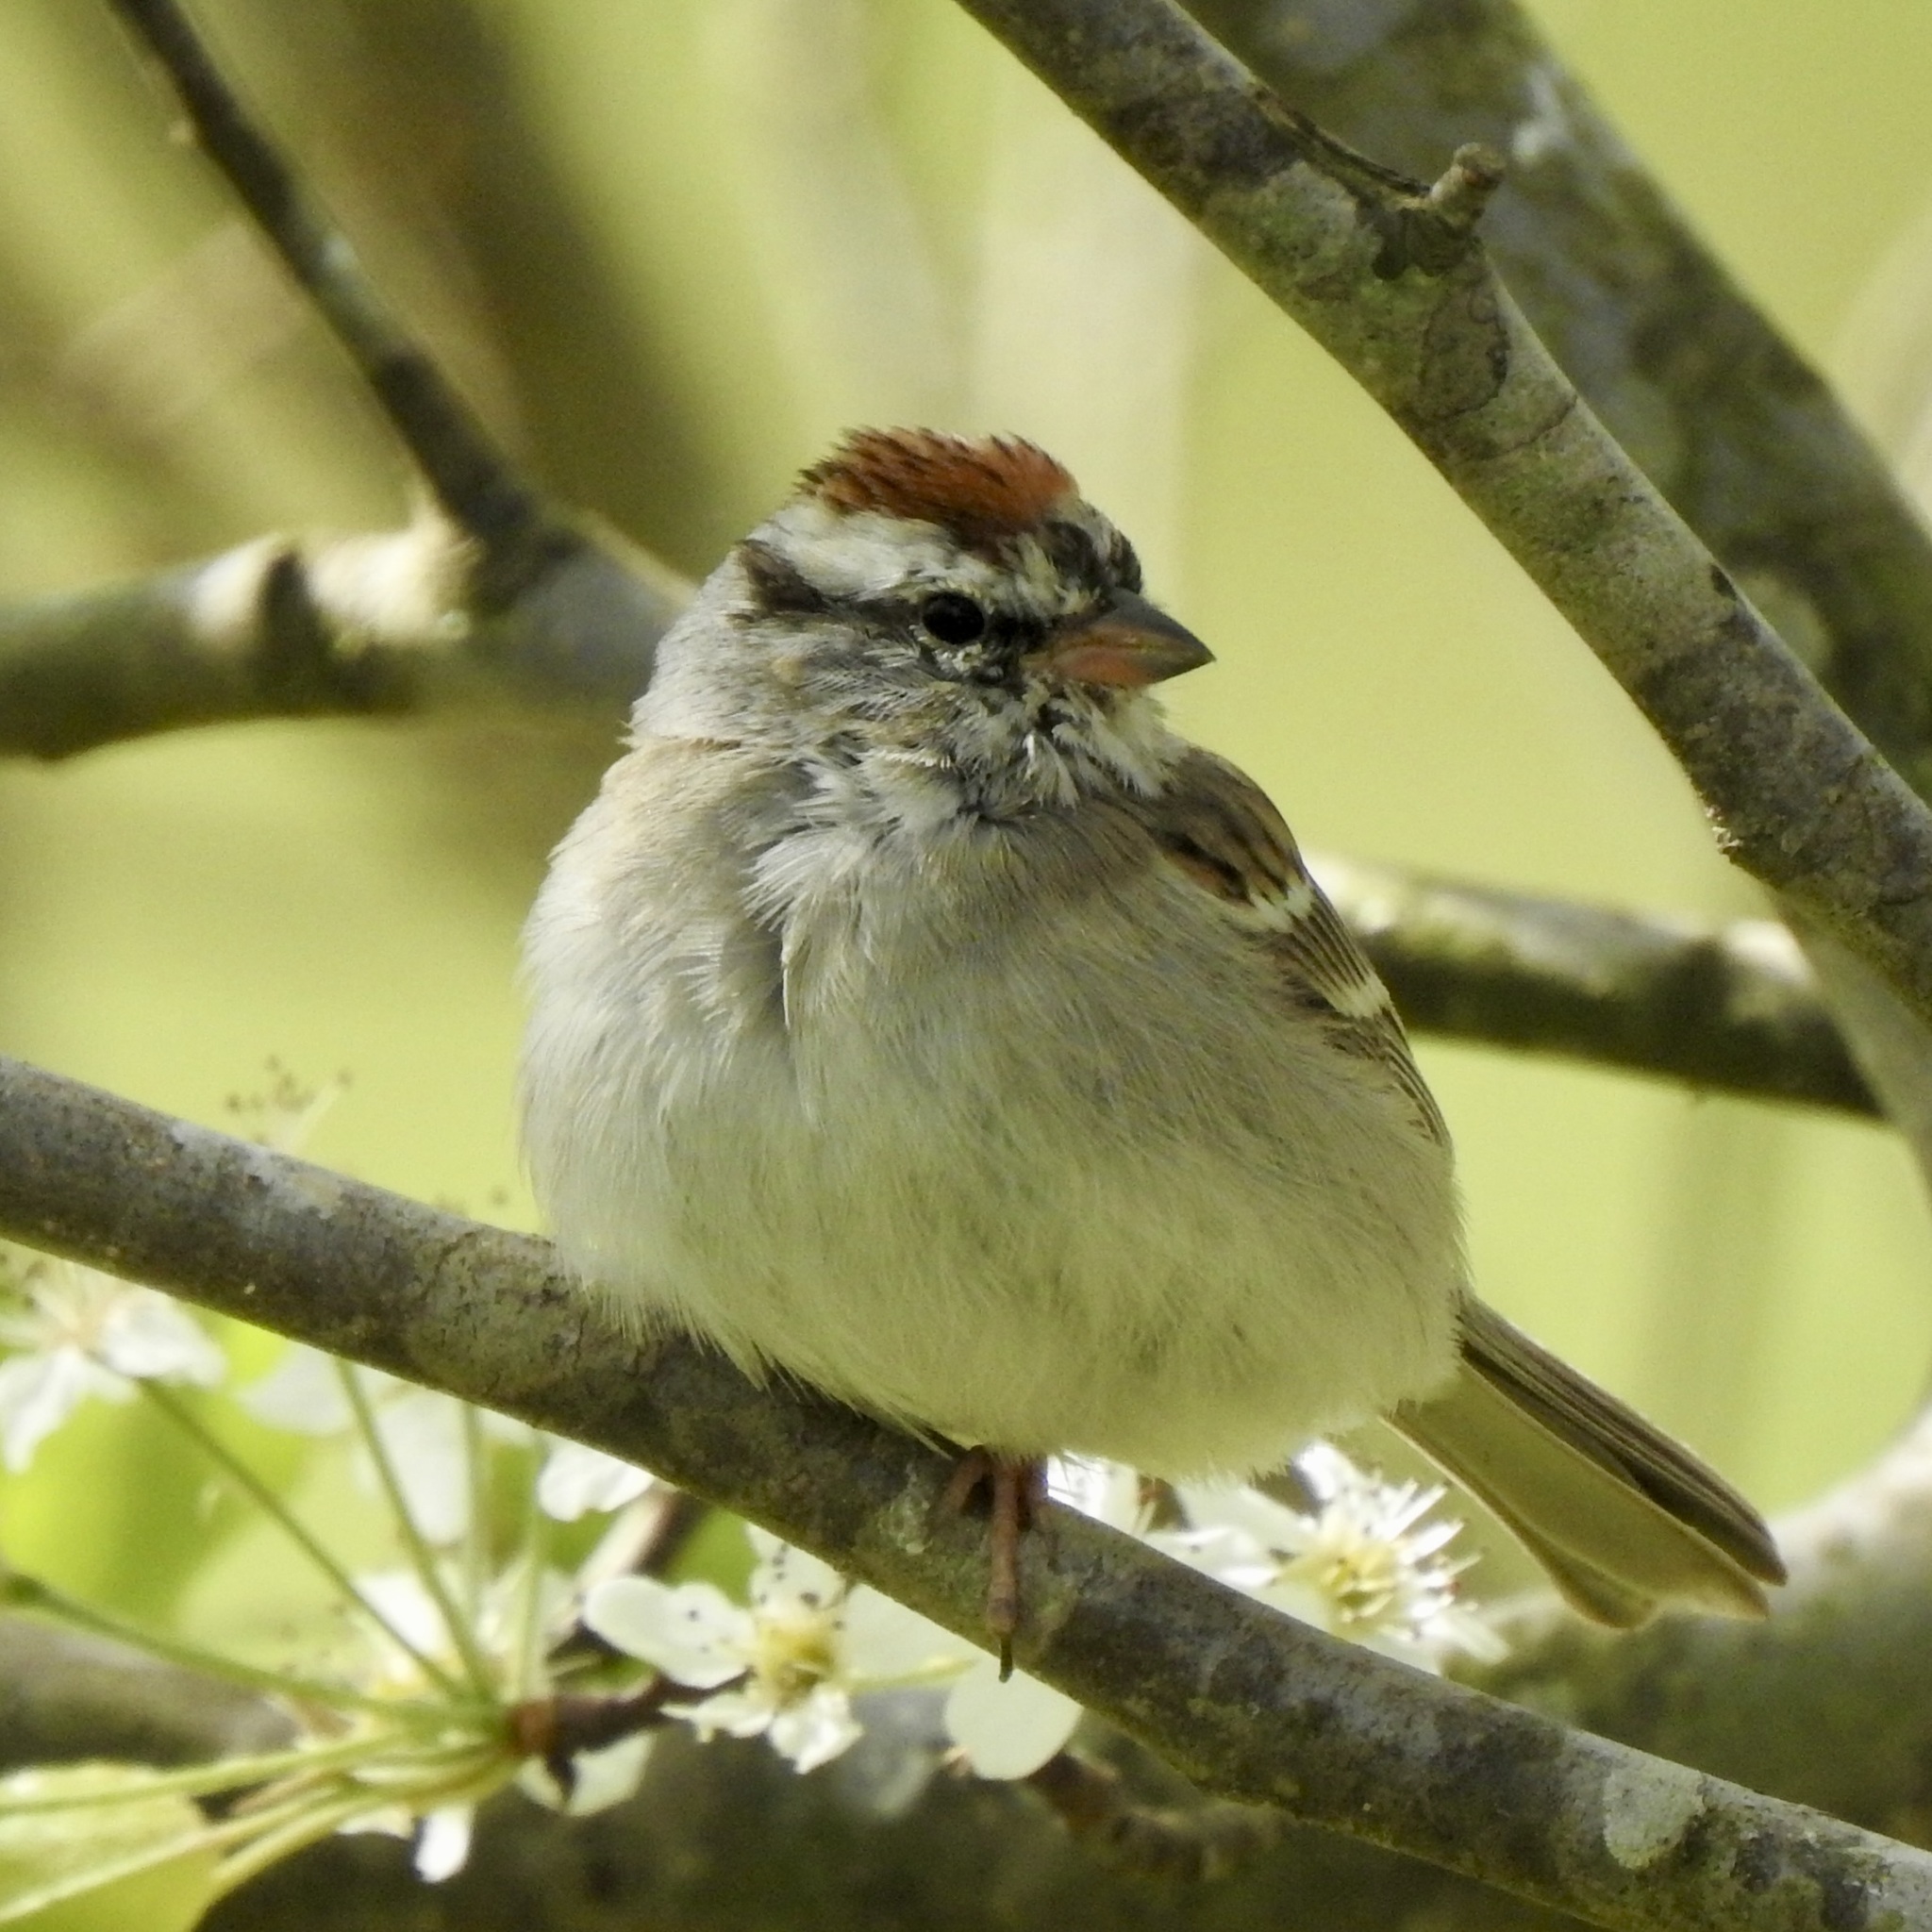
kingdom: Animalia
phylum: Chordata
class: Aves
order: Passeriformes
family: Passerellidae
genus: Spizella
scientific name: Spizella passerina
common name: Chipping sparrow
